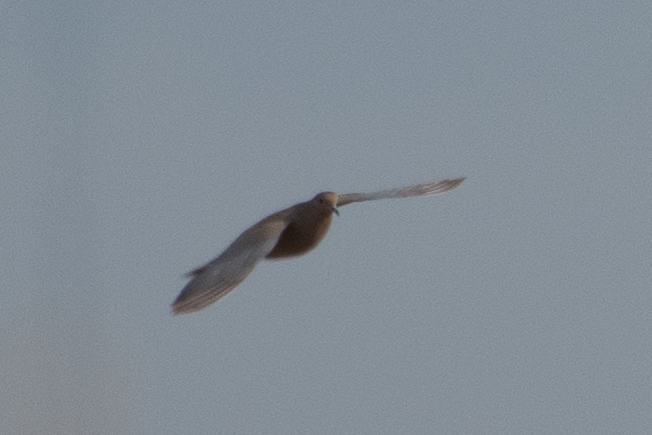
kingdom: Animalia
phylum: Chordata
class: Aves
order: Columbiformes
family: Columbidae
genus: Zenaida
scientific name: Zenaida macroura
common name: Mourning dove
